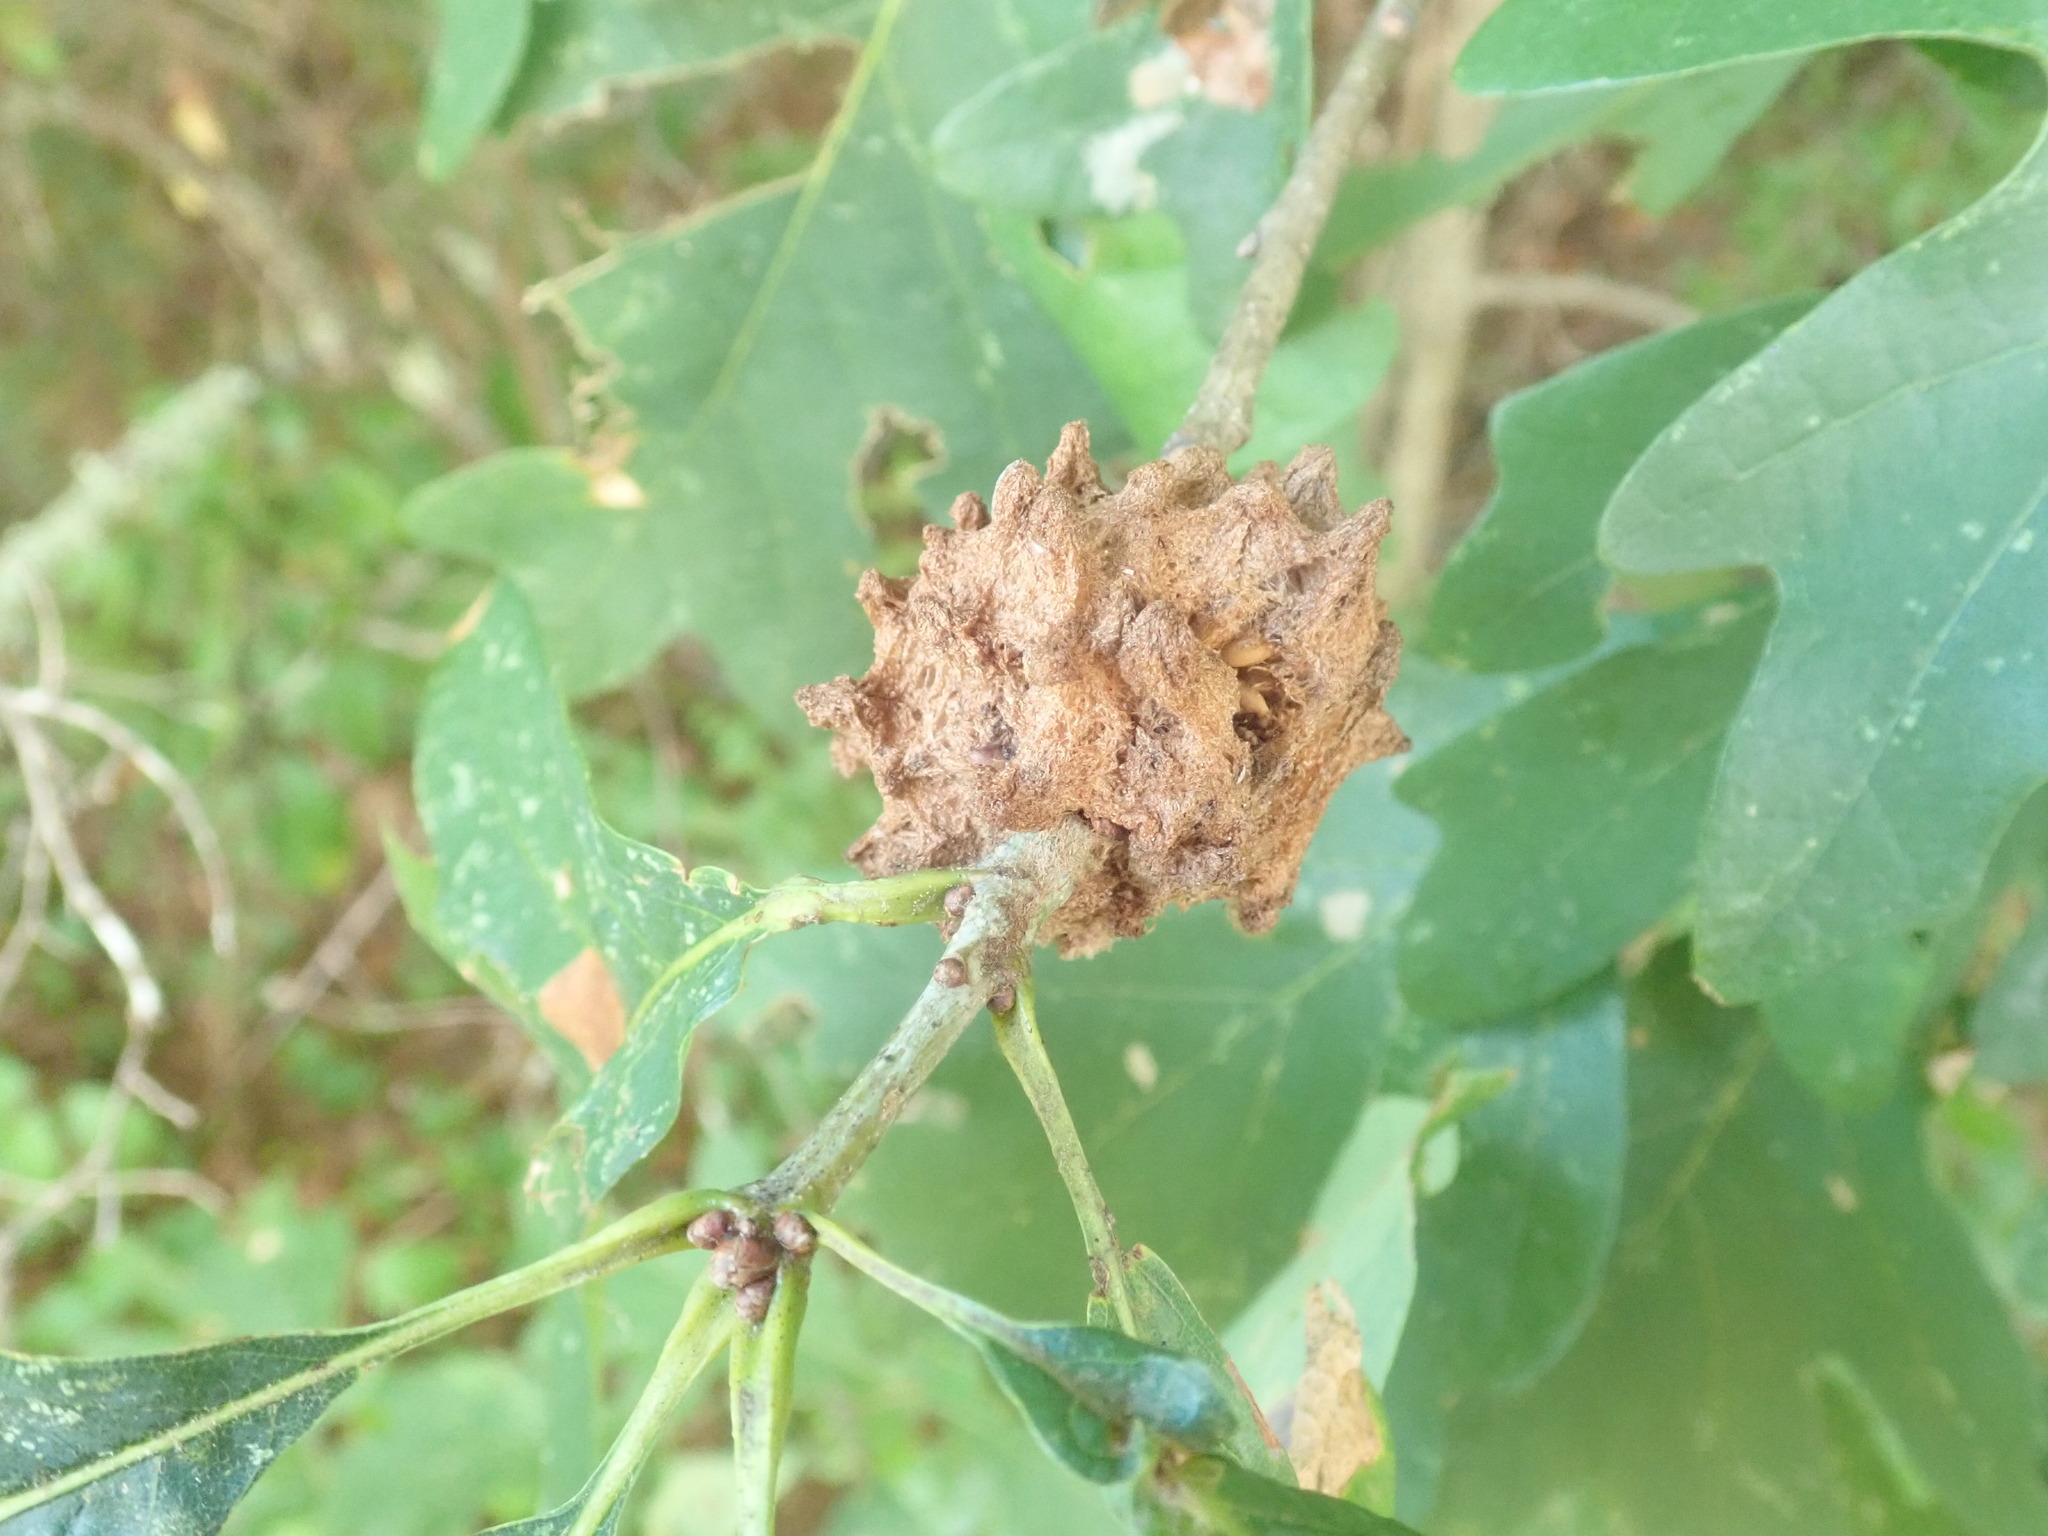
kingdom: Animalia
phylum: Arthropoda
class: Insecta
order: Hymenoptera
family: Cynipidae
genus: Callirhytis
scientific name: Callirhytis
